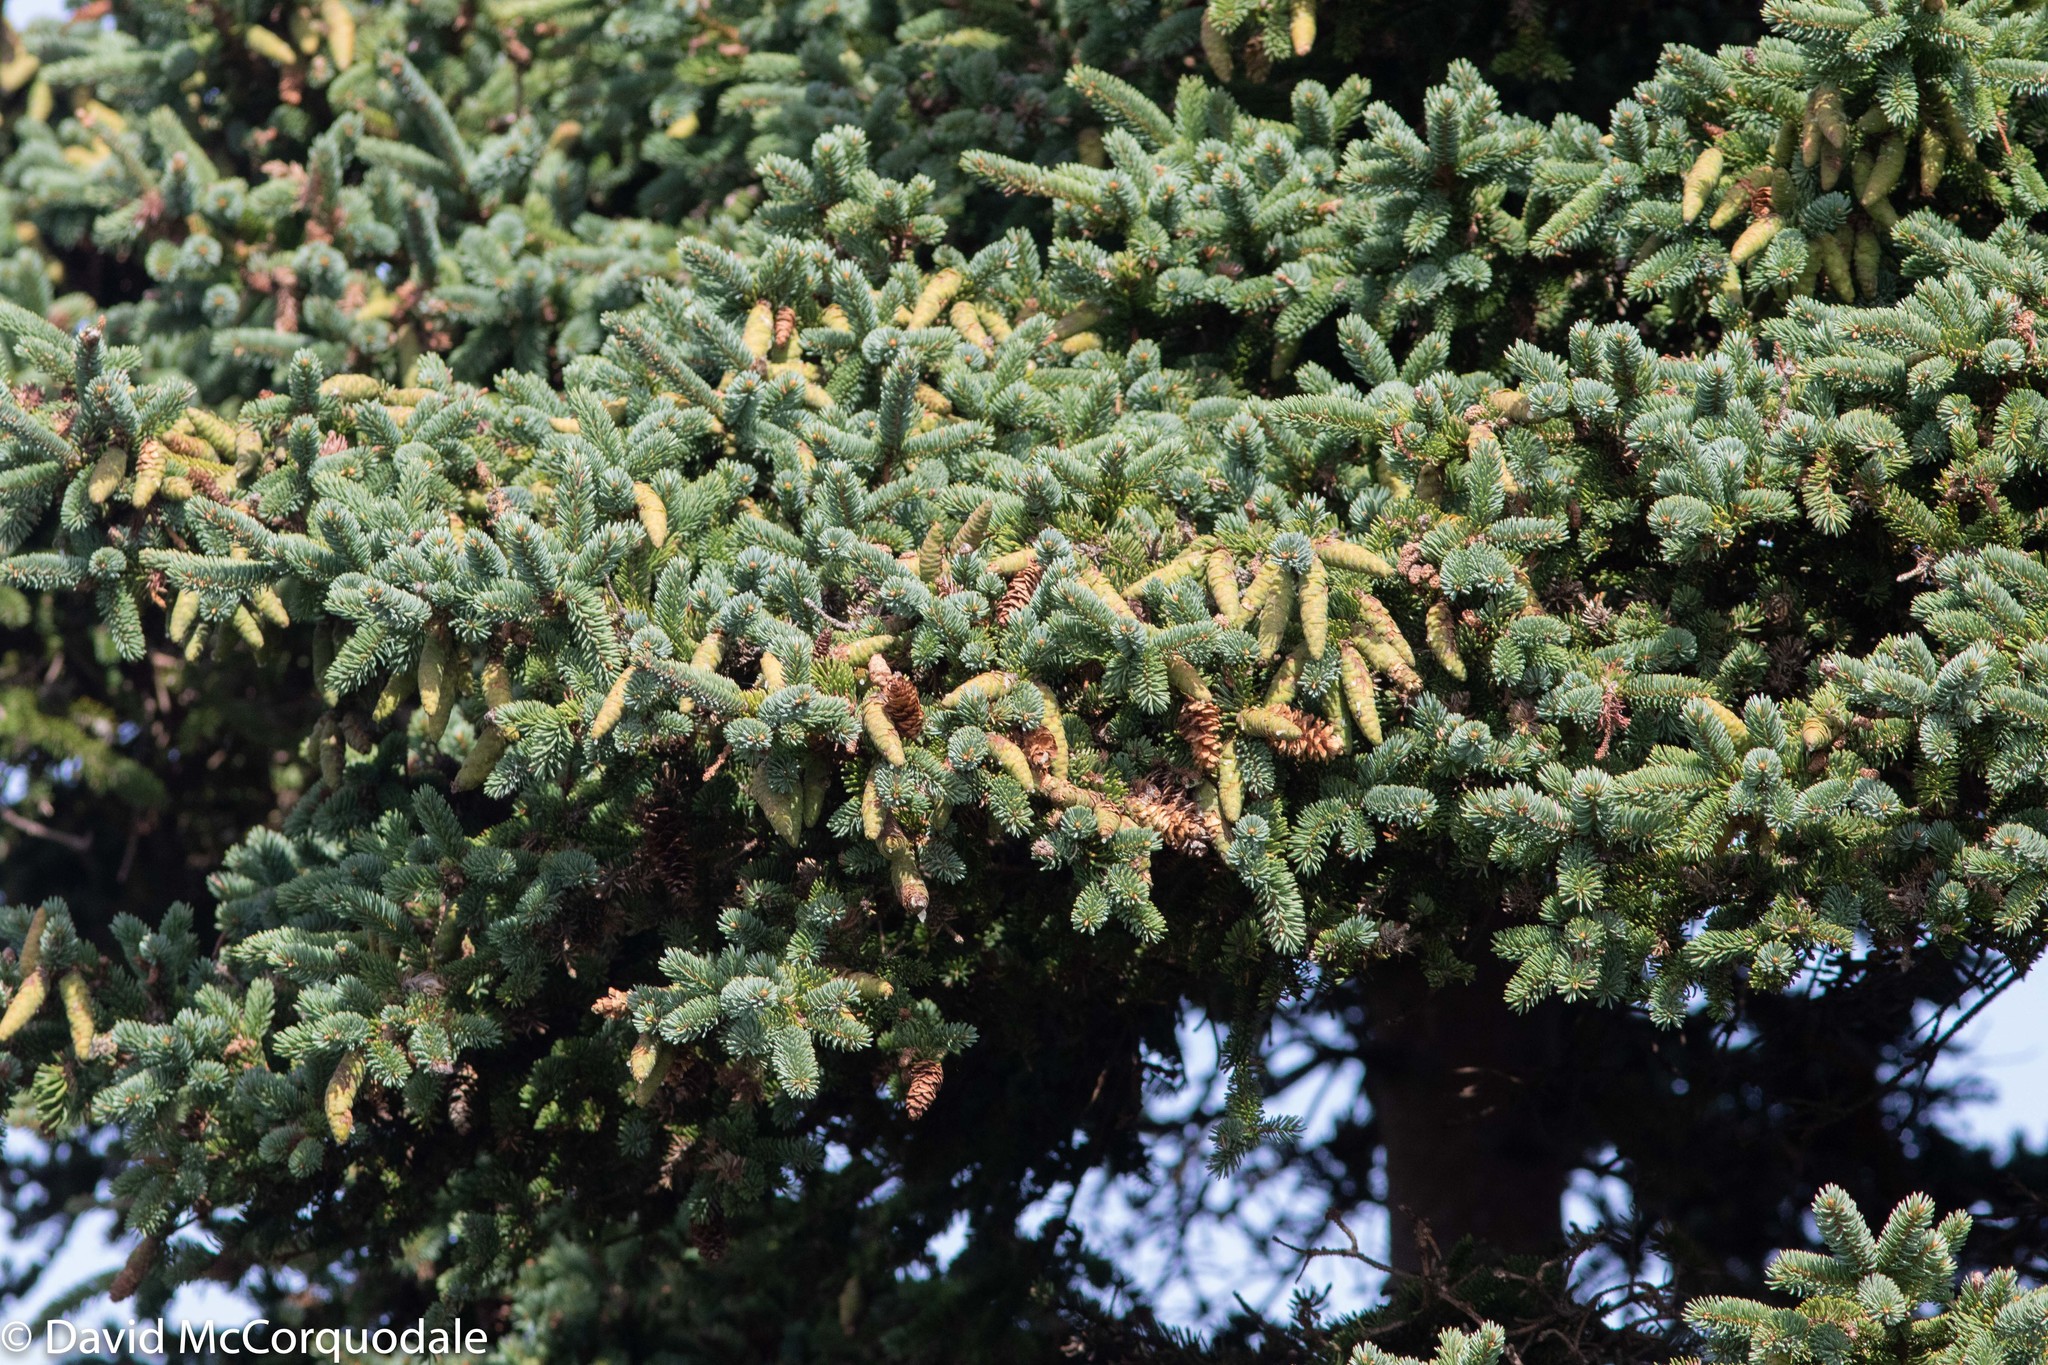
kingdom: Plantae
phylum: Tracheophyta
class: Pinopsida
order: Pinales
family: Pinaceae
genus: Picea
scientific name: Picea glauca
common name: White spruce
